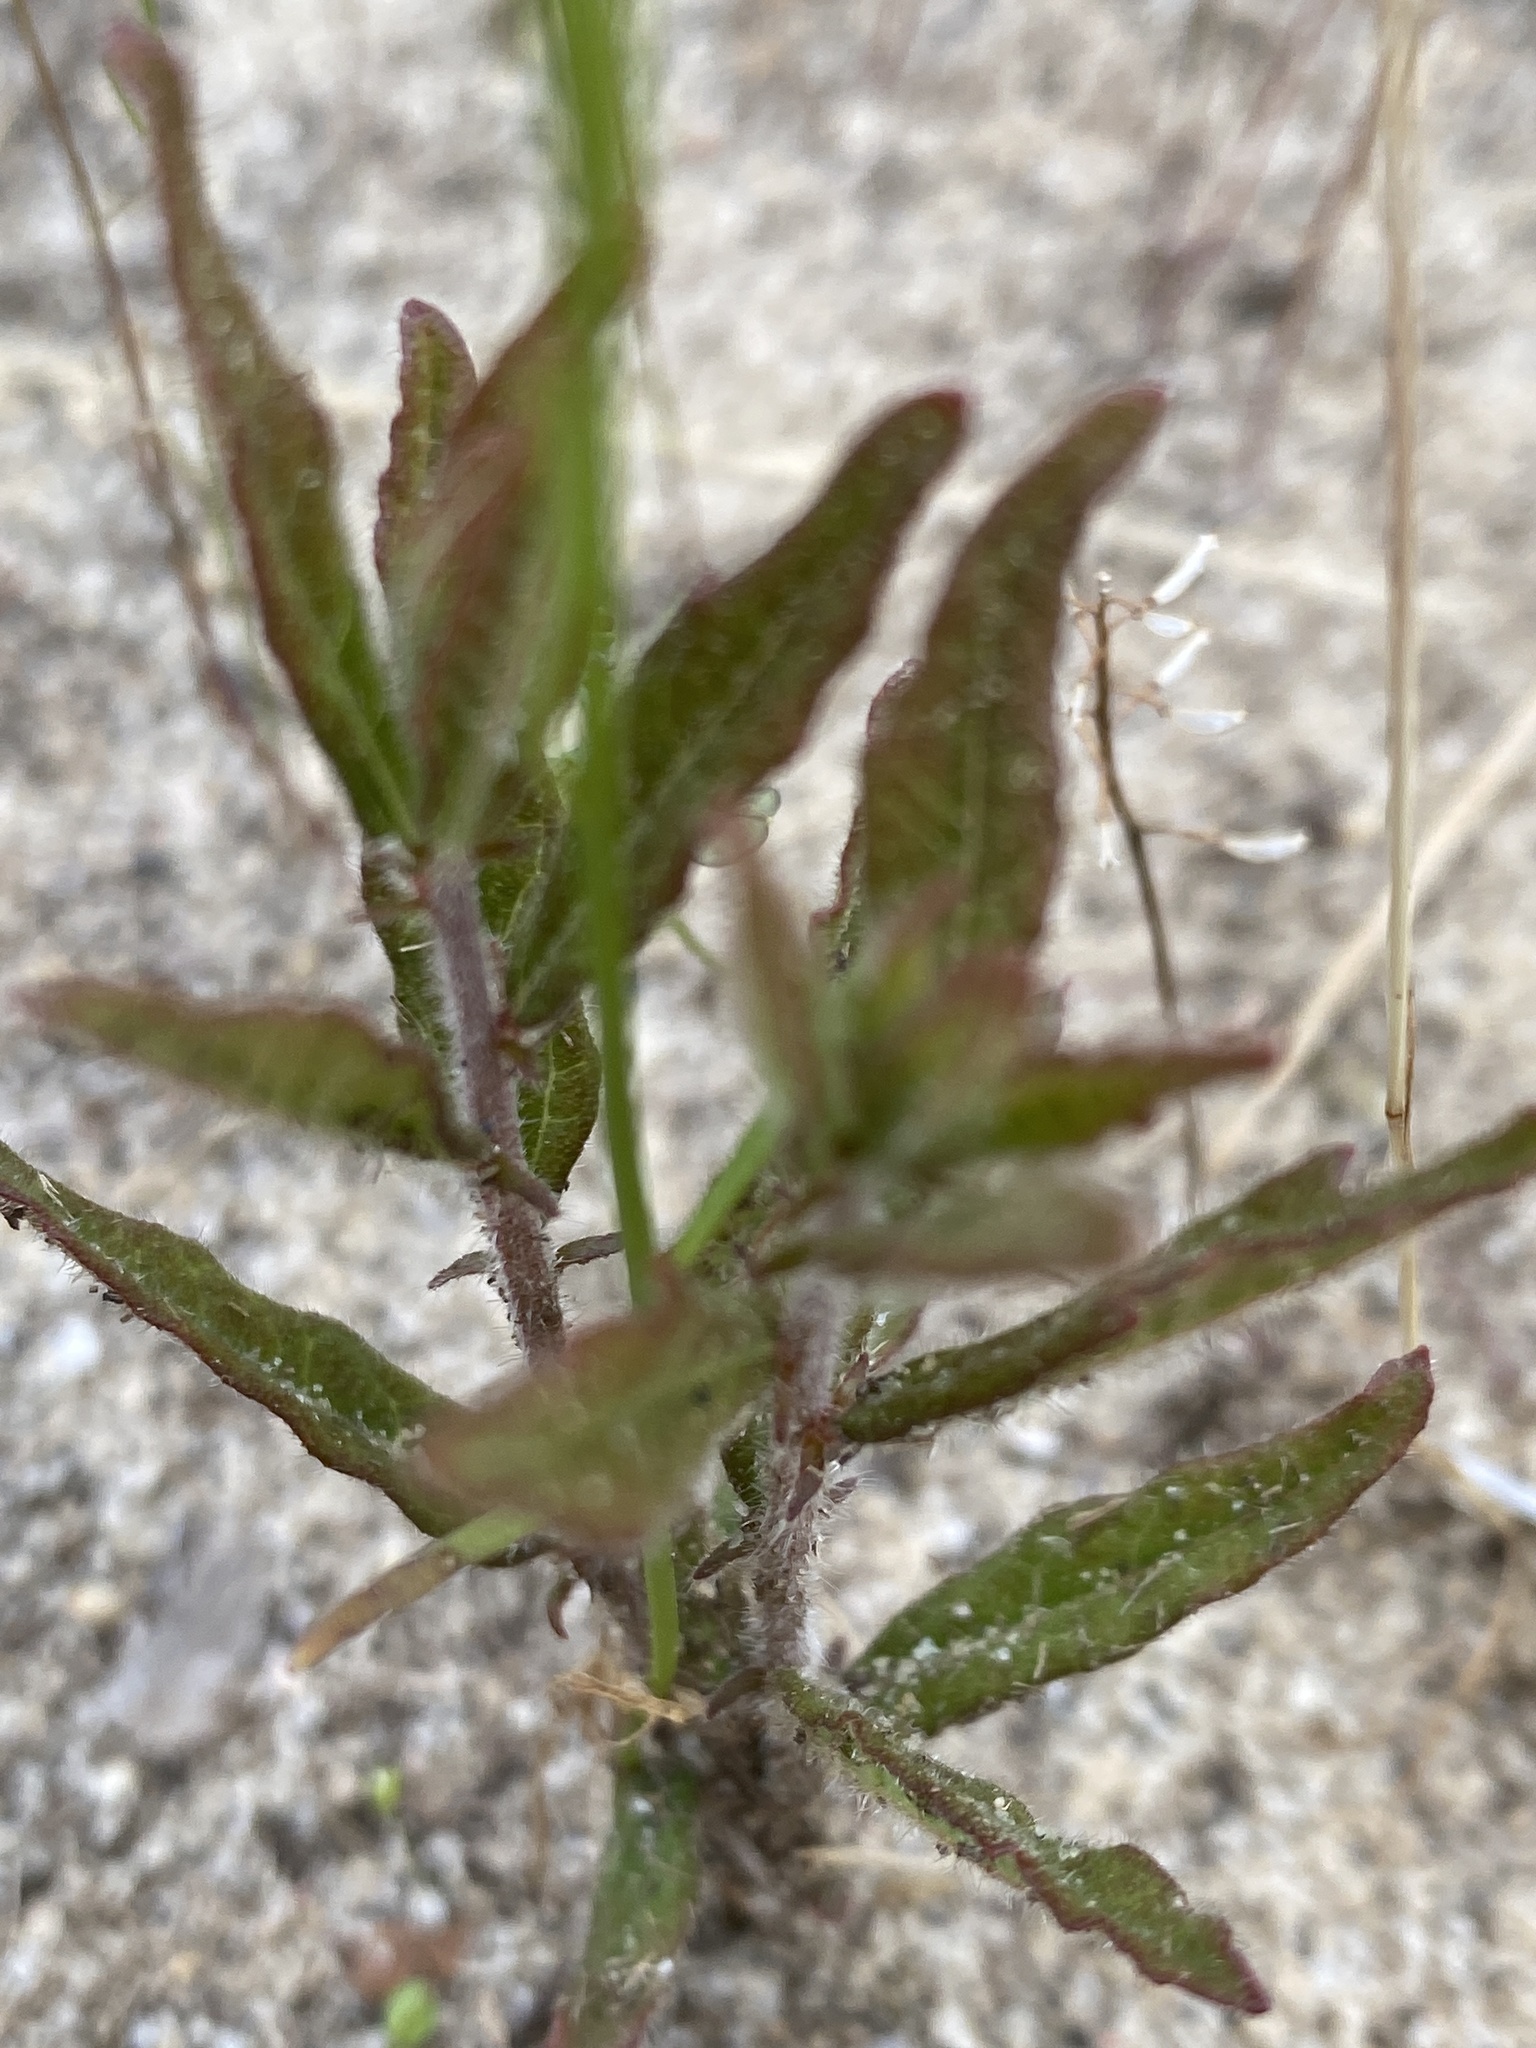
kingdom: Plantae
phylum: Tracheophyta
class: Magnoliopsida
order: Malpighiales
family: Euphorbiaceae
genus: Tragia
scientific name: Tragia urens
